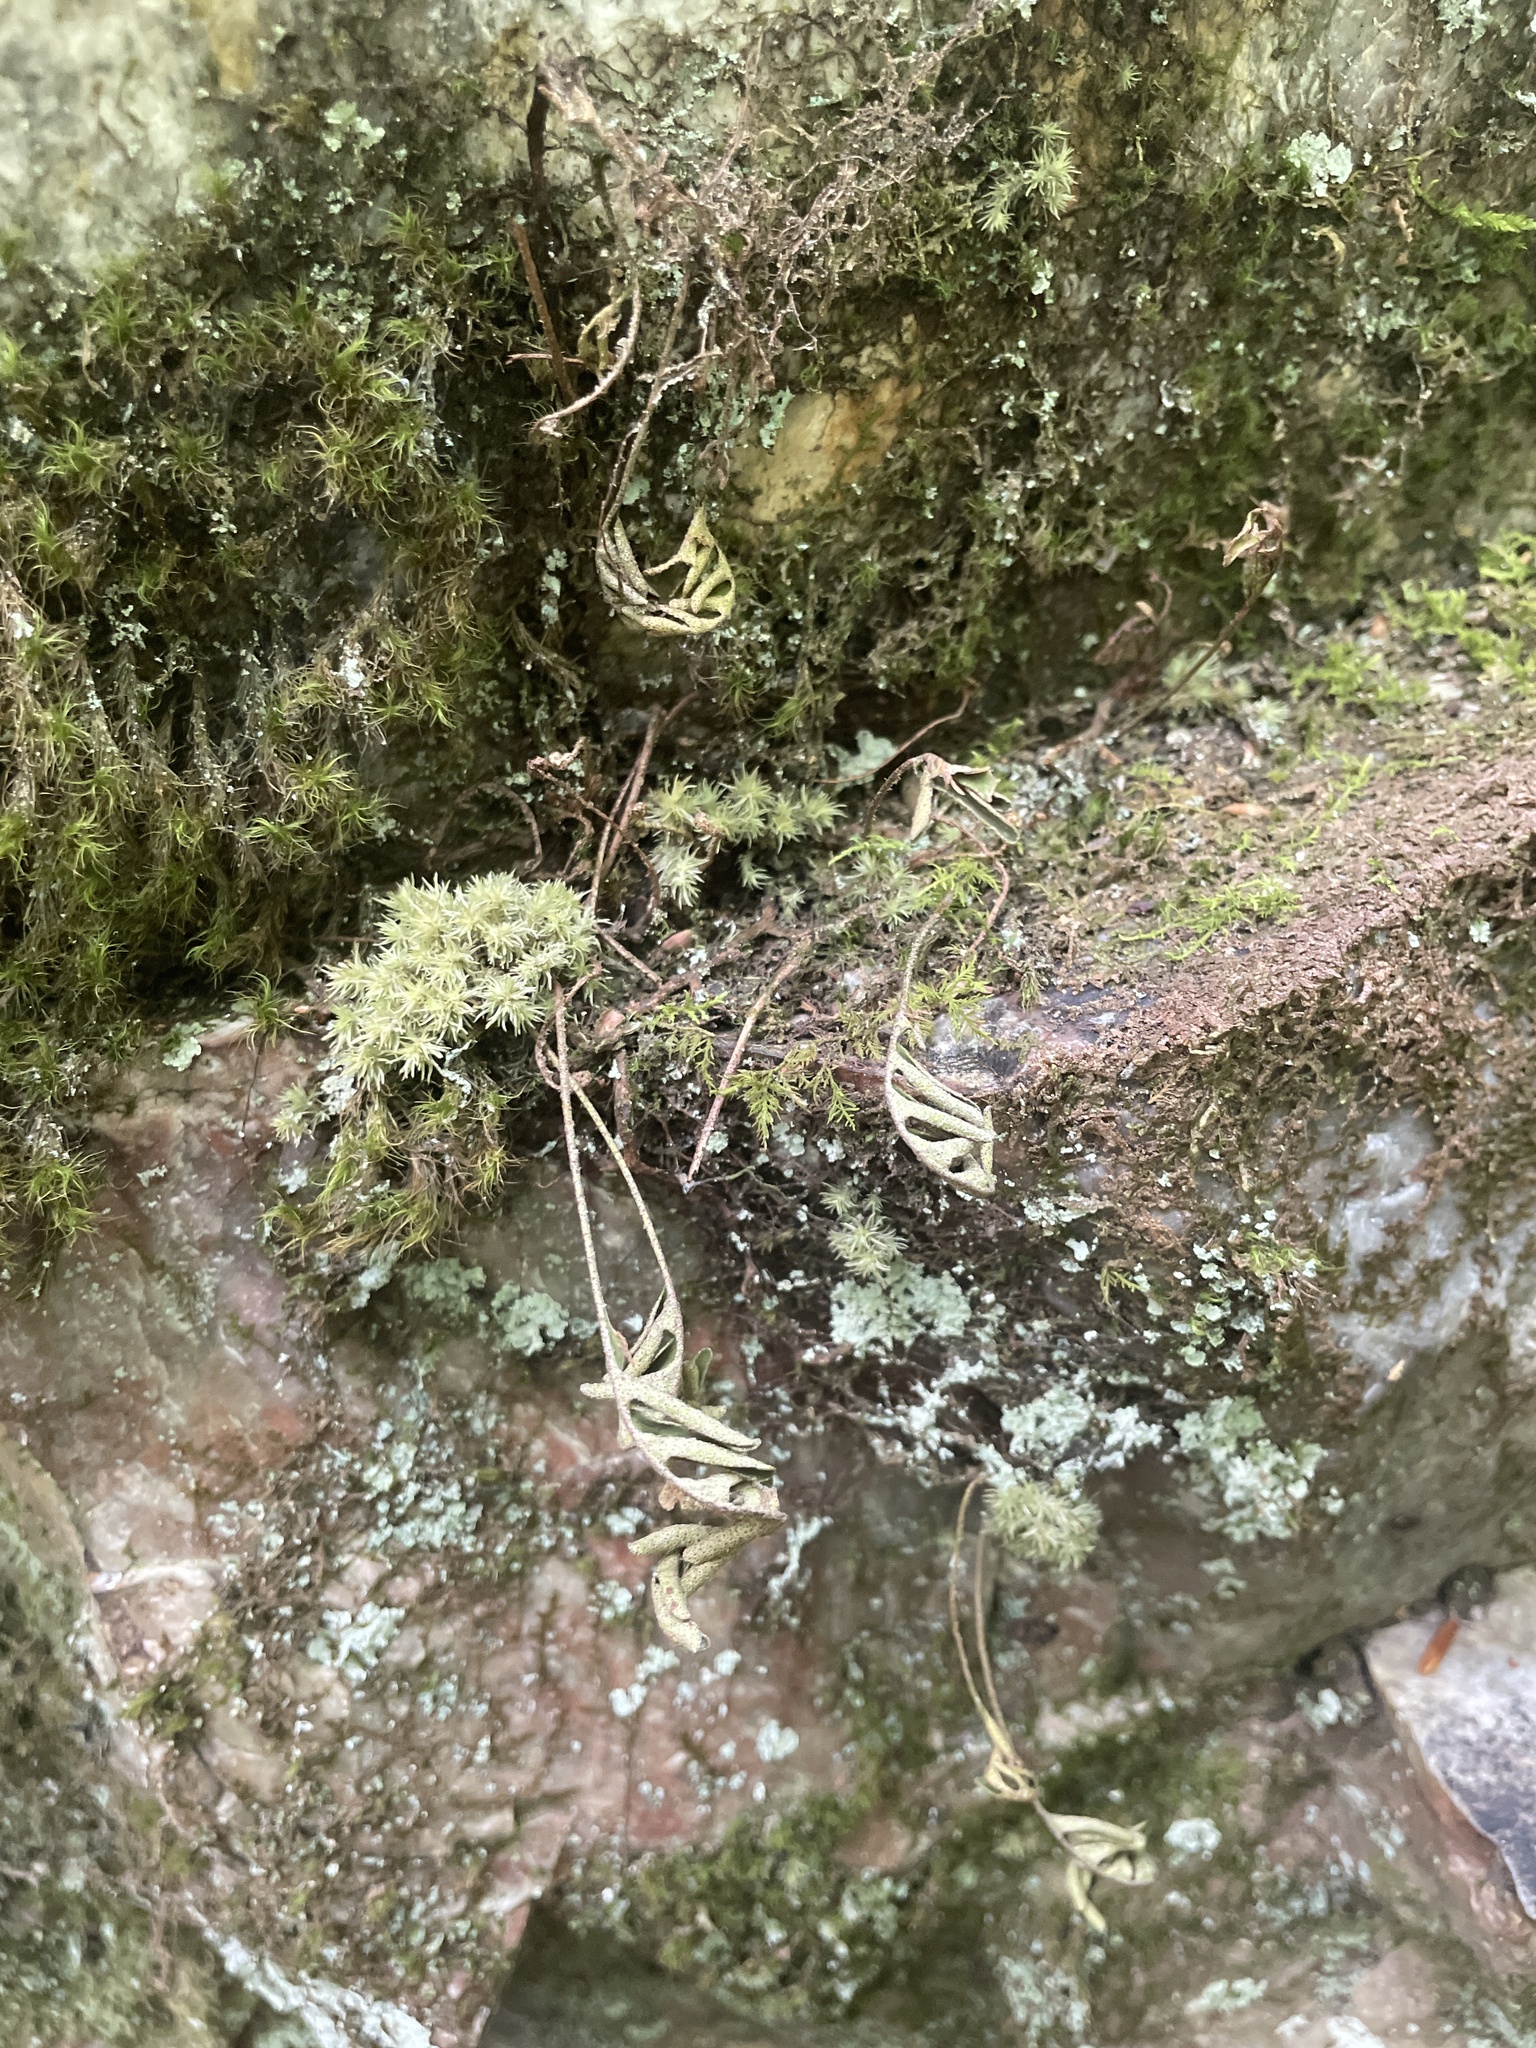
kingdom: Plantae
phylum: Tracheophyta
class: Polypodiopsida
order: Polypodiales
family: Polypodiaceae
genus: Pleopeltis
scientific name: Pleopeltis michauxiana
